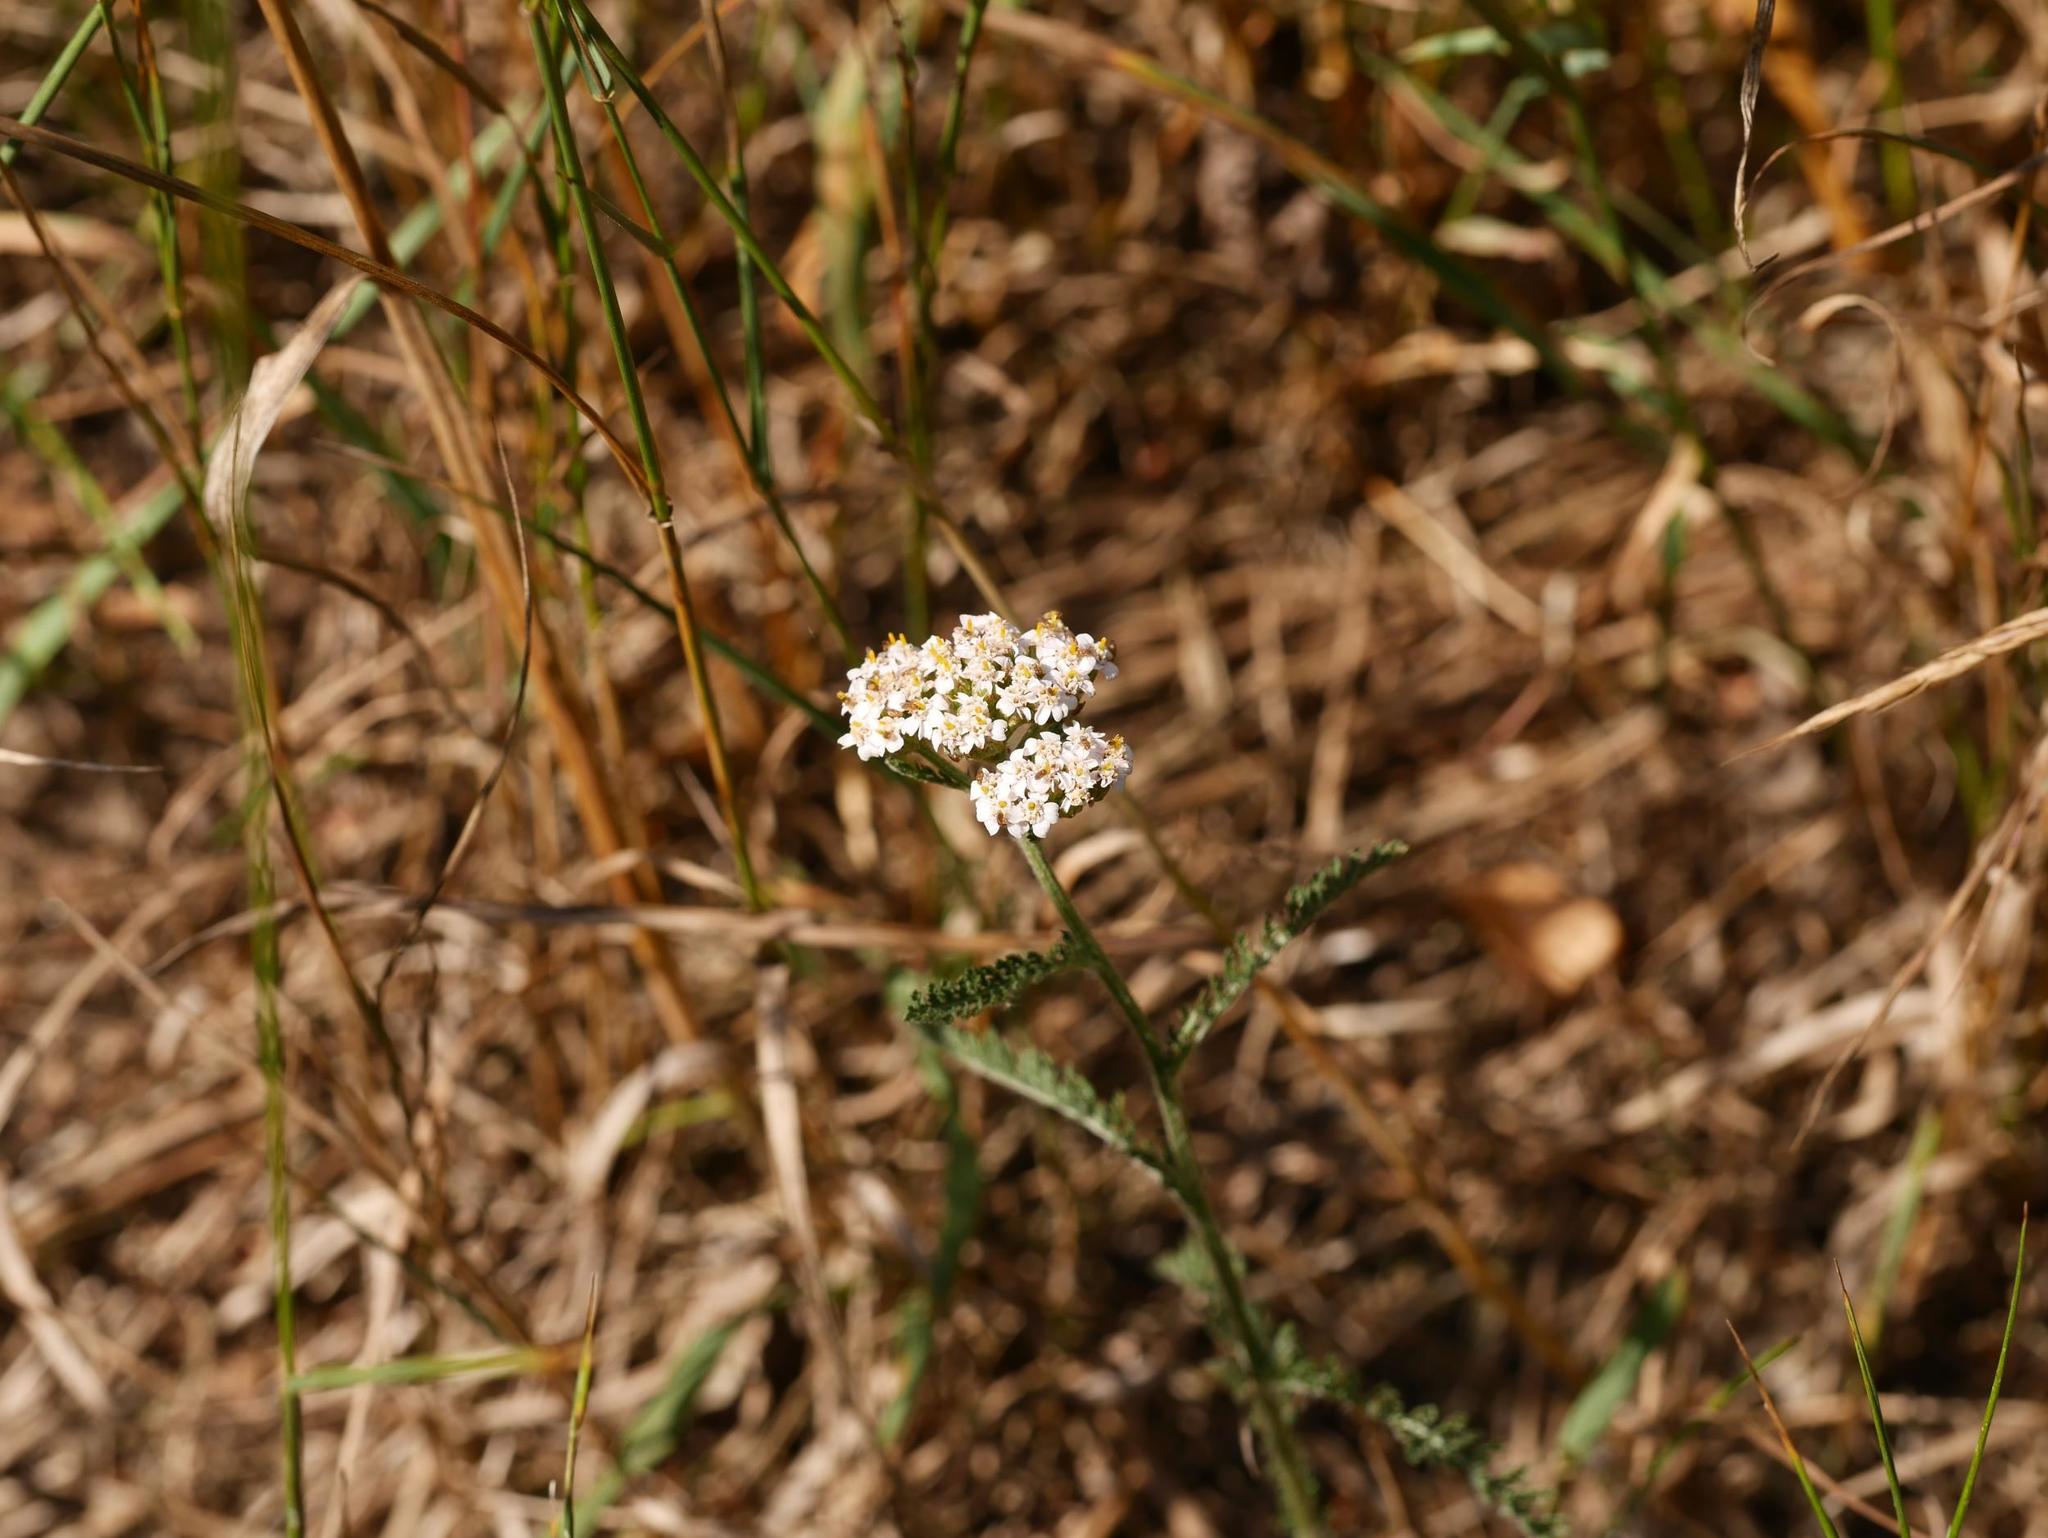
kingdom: Plantae
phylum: Tracheophyta
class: Magnoliopsida
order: Asterales
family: Asteraceae
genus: Achillea
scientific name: Achillea millefolium
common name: Yarrow
